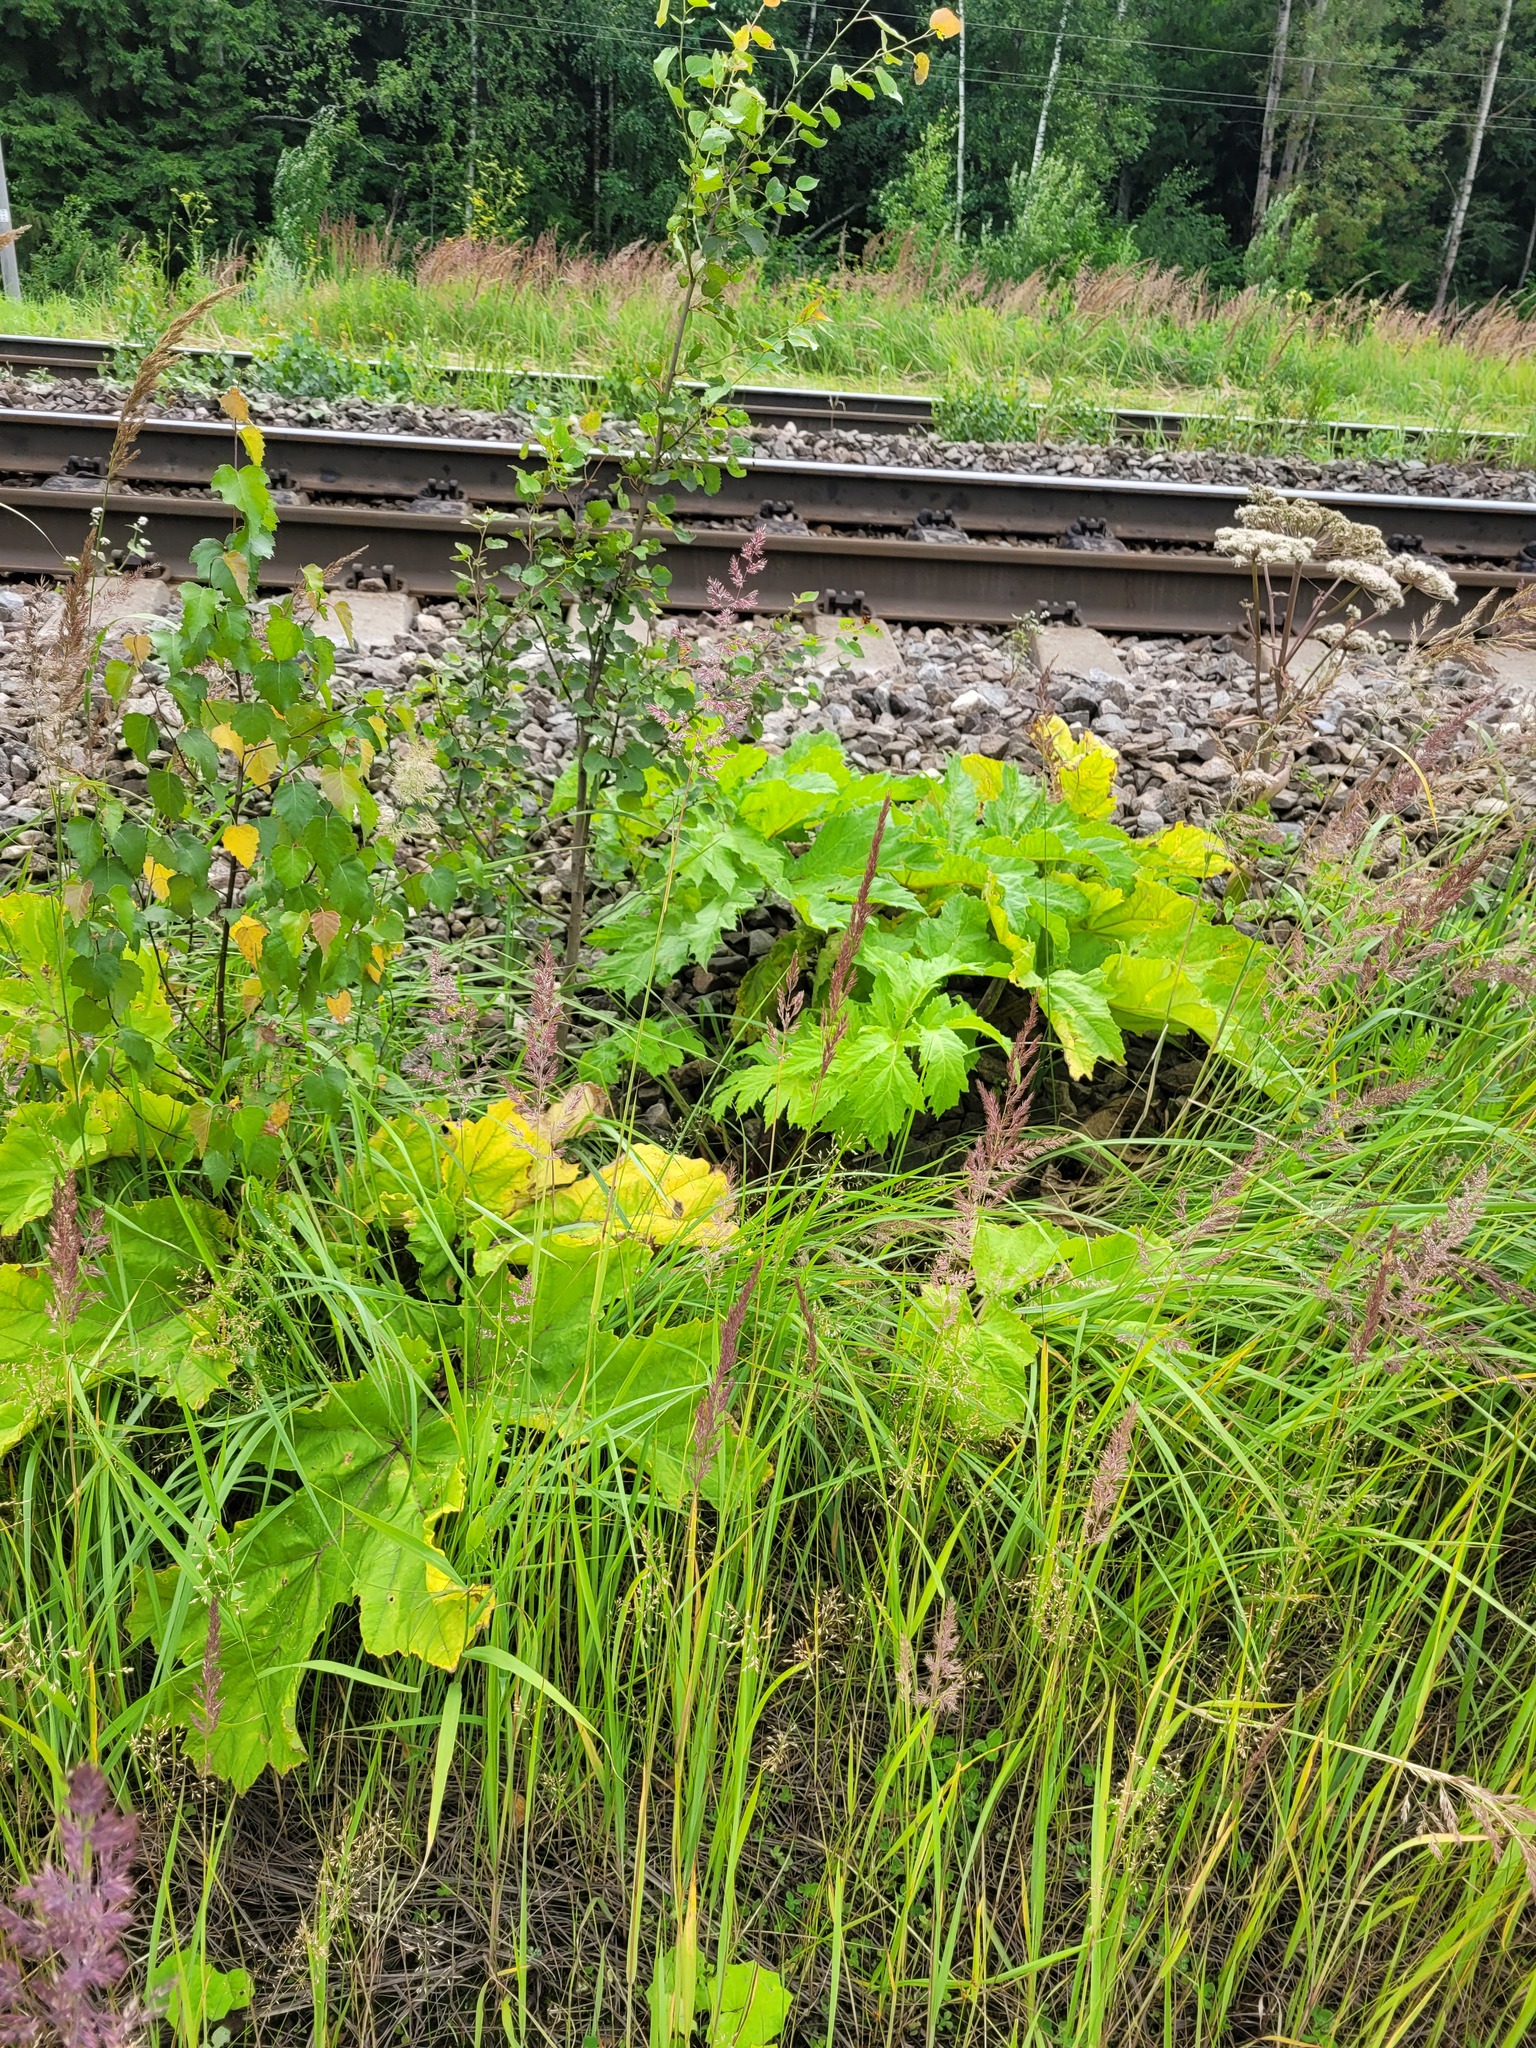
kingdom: Plantae
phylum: Tracheophyta
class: Magnoliopsida
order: Apiales
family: Apiaceae
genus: Heracleum
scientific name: Heracleum sosnowskyi
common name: Sosnowsky's hogweed
